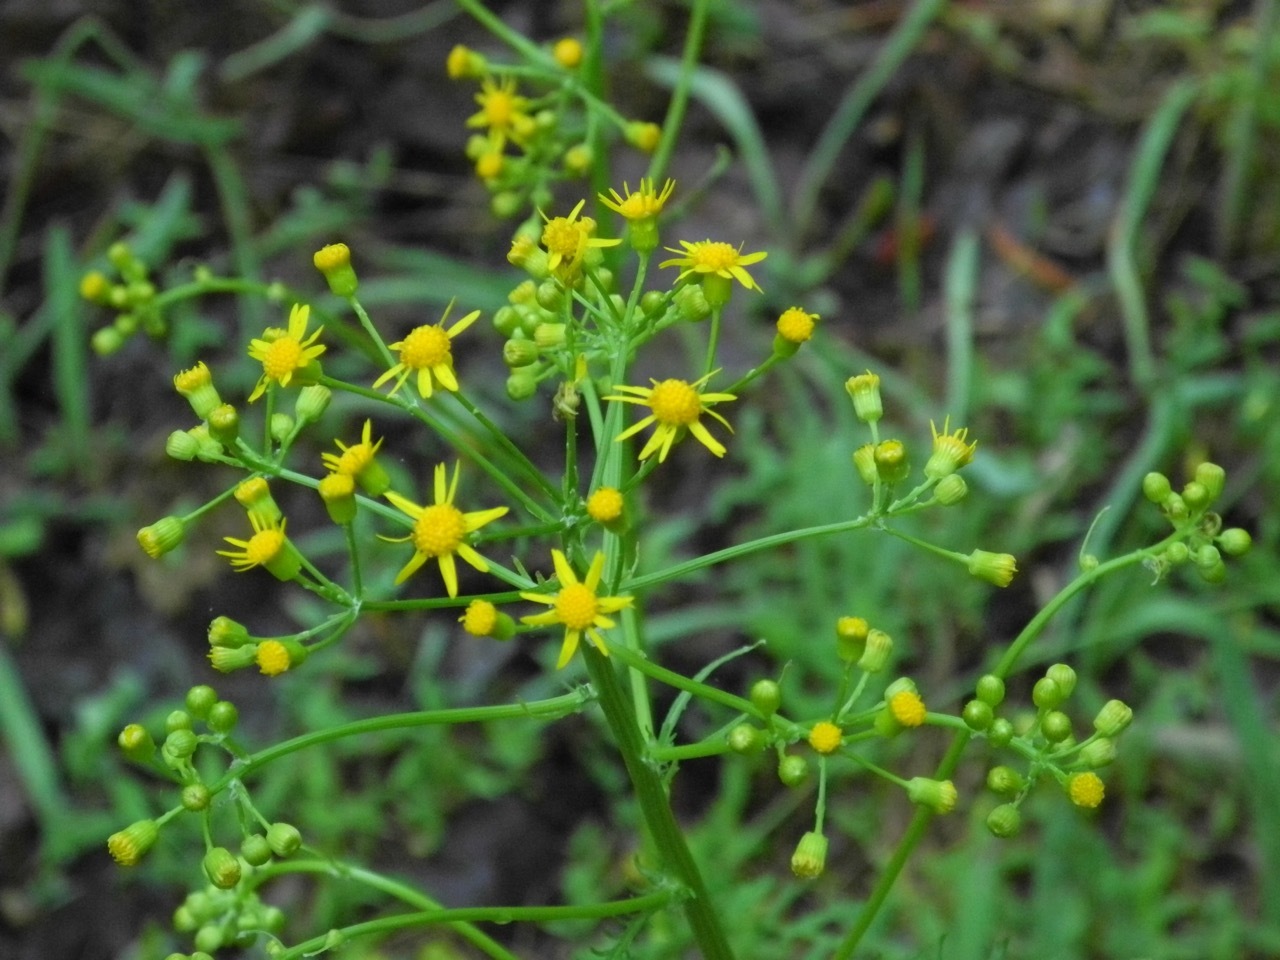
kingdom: Plantae
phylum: Tracheophyta
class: Magnoliopsida
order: Asterales
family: Asteraceae
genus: Packera
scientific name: Packera anonyma
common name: Small ragwort
